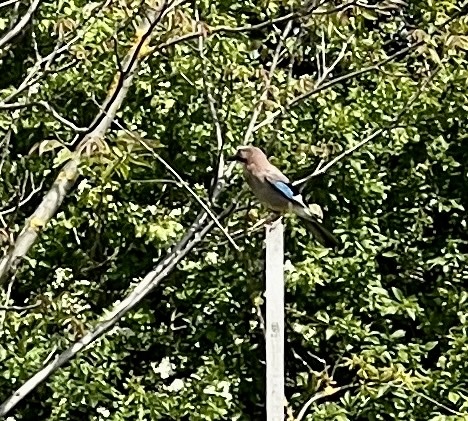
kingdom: Animalia
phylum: Chordata
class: Aves
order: Passeriformes
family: Corvidae
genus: Garrulus
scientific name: Garrulus glandarius
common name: Eurasian jay
